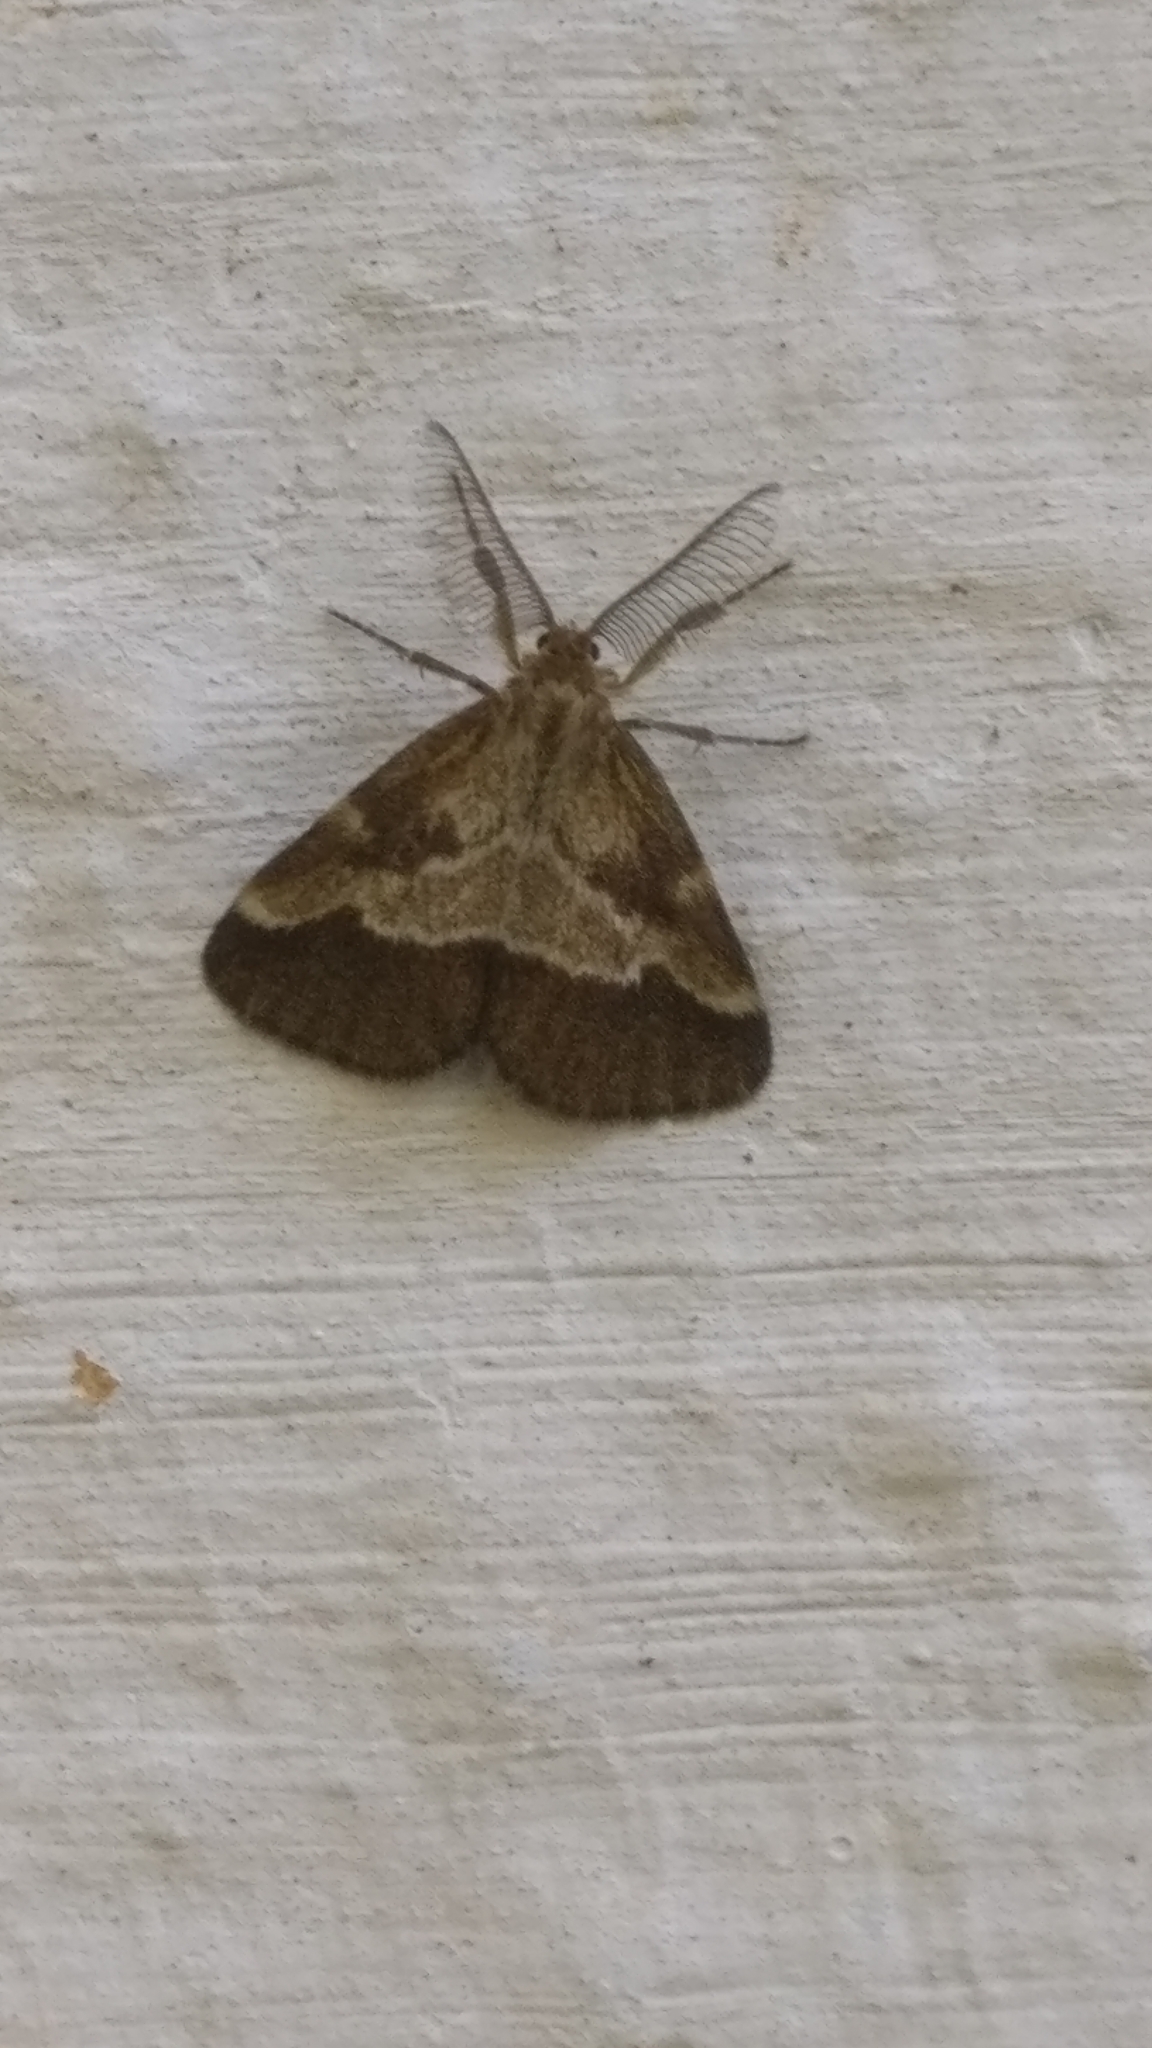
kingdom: Animalia
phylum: Arthropoda
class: Insecta
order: Lepidoptera
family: Erebidae
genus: Aroa
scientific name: Aroa cambelli
